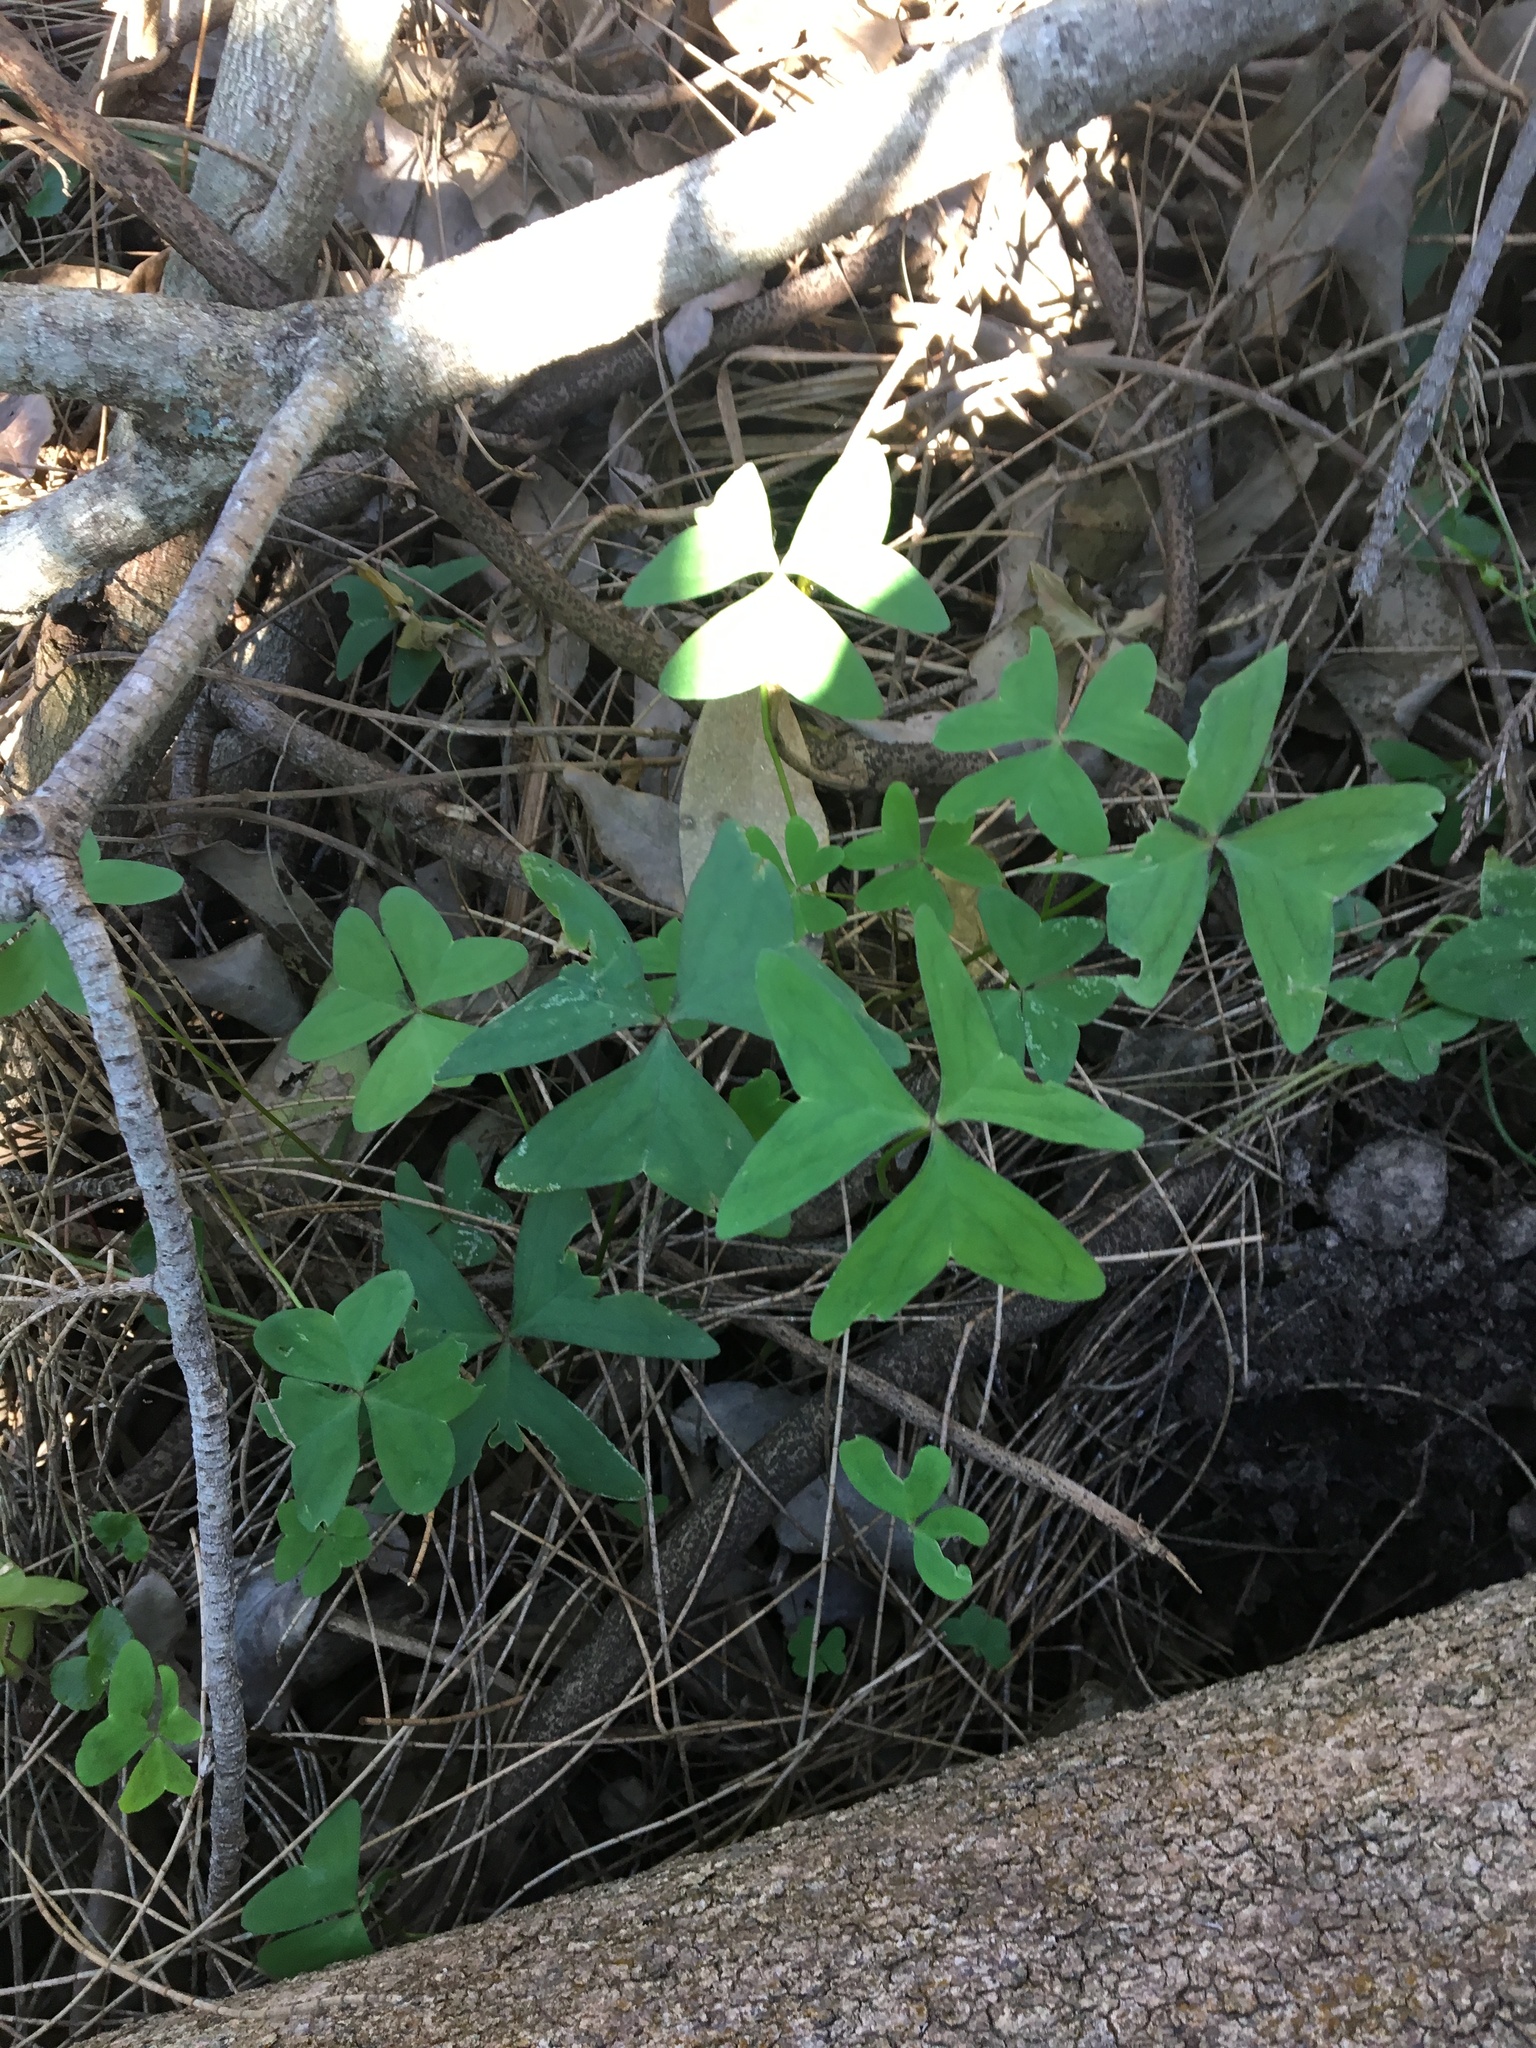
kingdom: Plantae
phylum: Tracheophyta
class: Magnoliopsida
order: Oxalidales
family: Oxalidaceae
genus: Oxalis
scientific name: Oxalis latifolia
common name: Garden pink-sorrel
